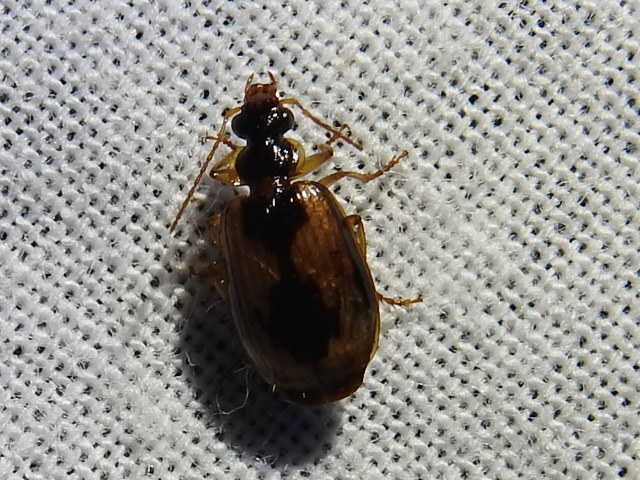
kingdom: Animalia
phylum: Arthropoda
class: Insecta
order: Coleoptera
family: Carabidae
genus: Lebia
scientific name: Lebia fuscata
